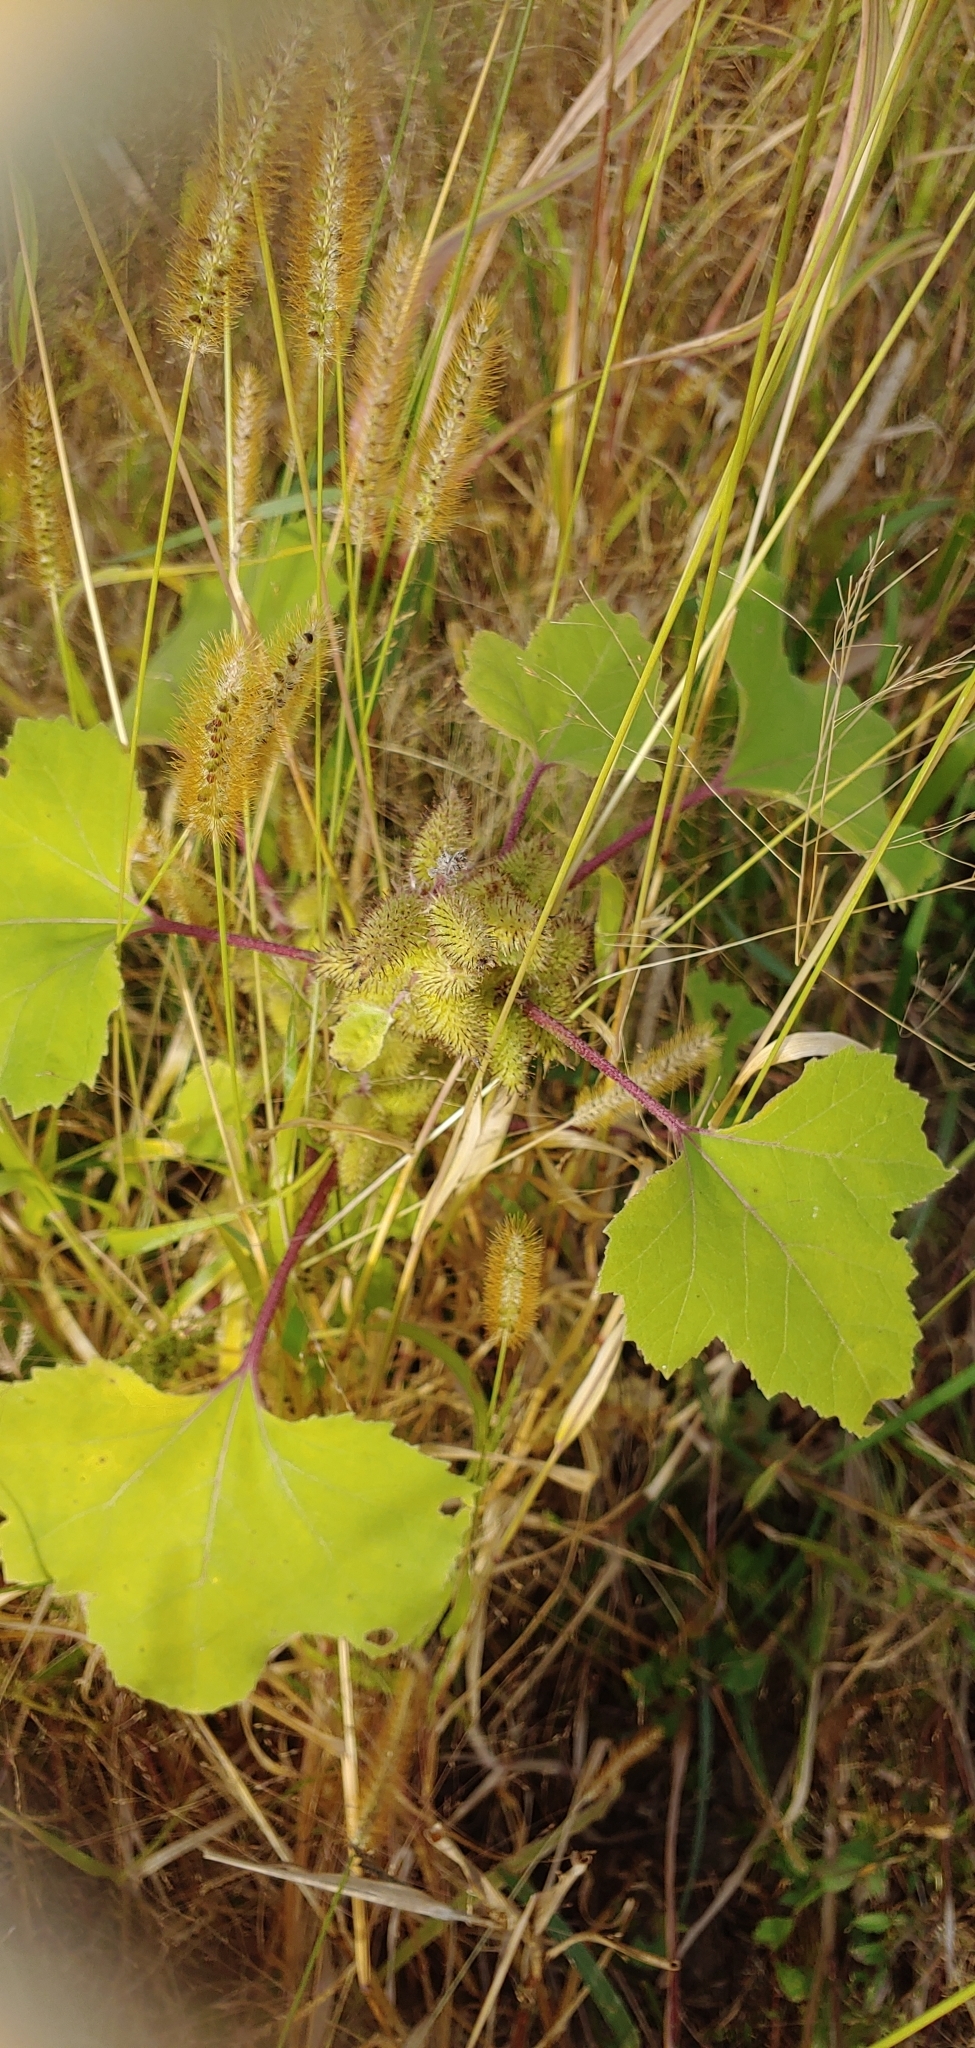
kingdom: Plantae
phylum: Tracheophyta
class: Magnoliopsida
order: Asterales
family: Asteraceae
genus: Xanthium
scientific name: Xanthium strumarium
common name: Rough cocklebur
